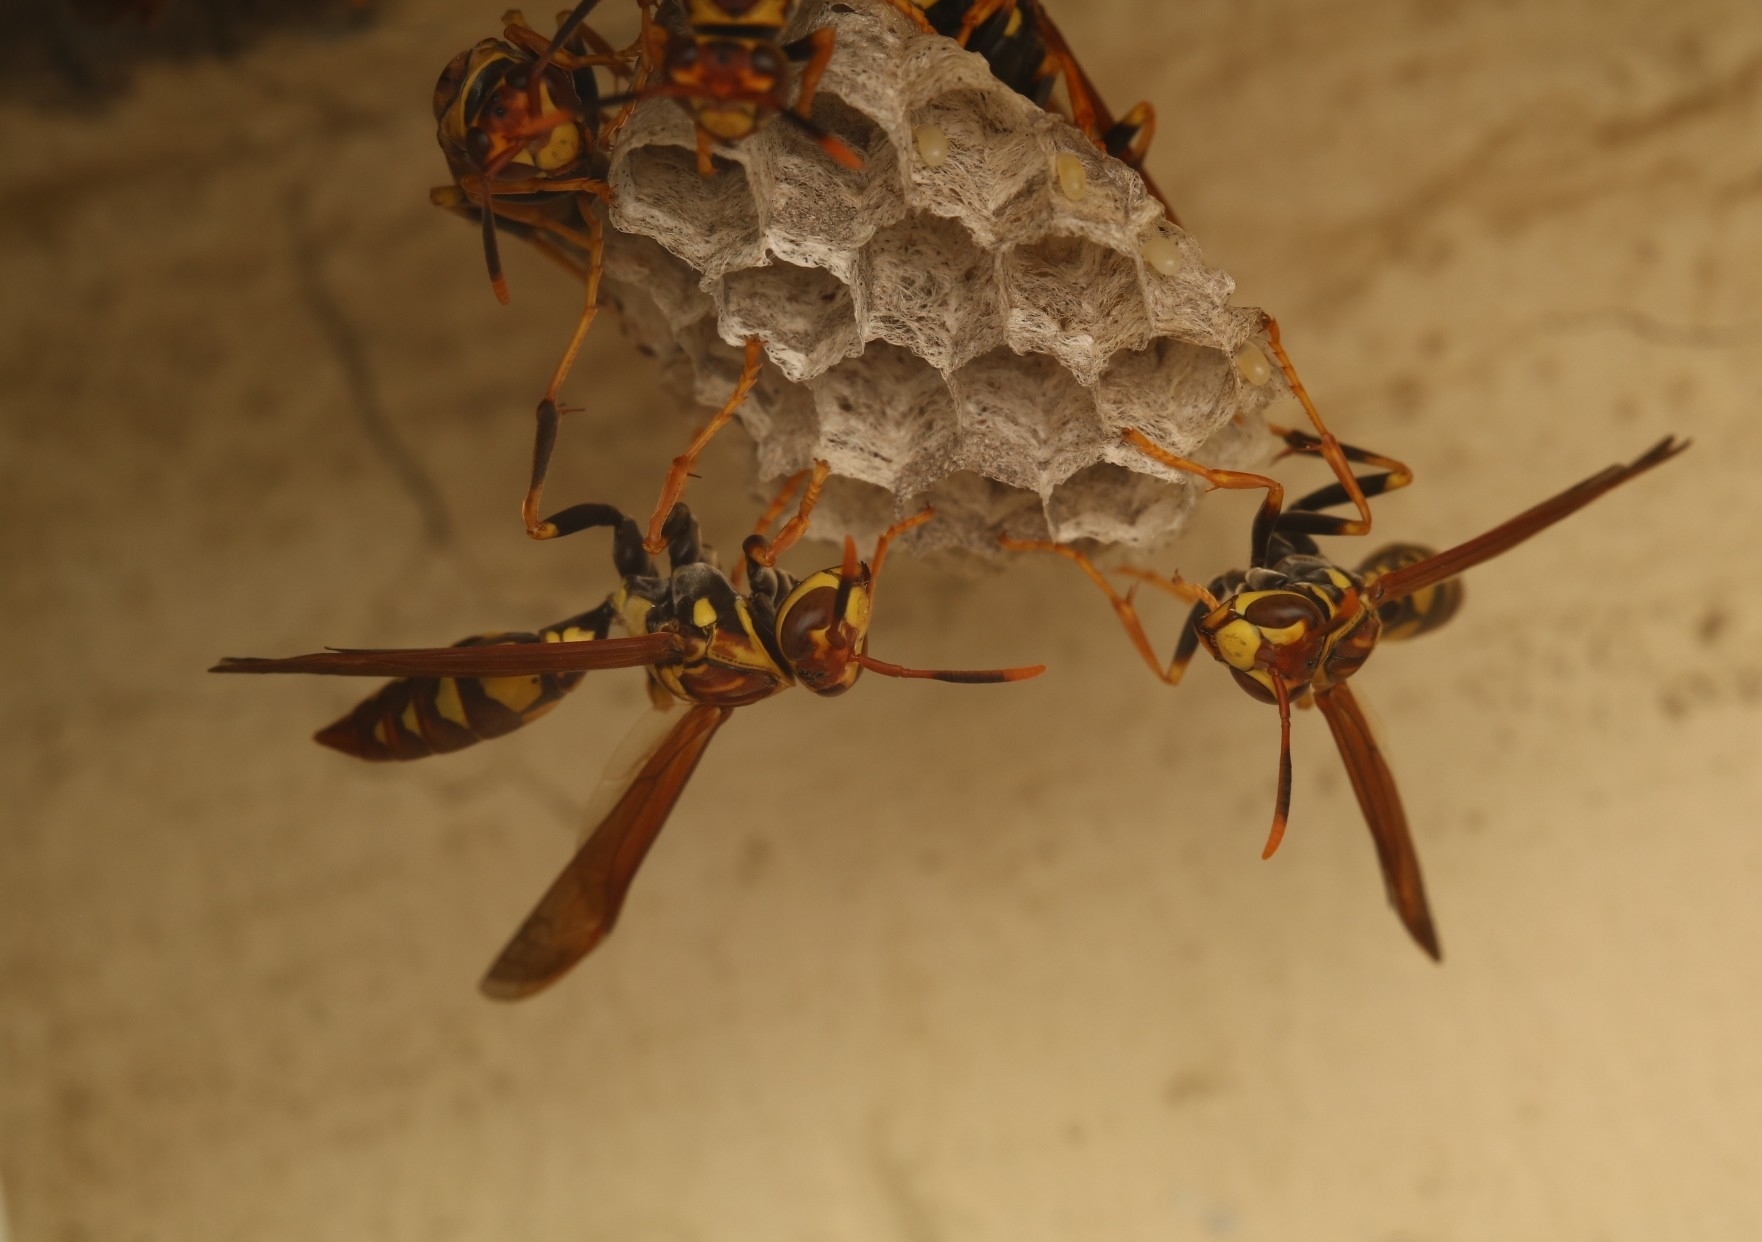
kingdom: Animalia
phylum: Arthropoda
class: Insecta
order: Hymenoptera
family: Eumenidae
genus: Polistes
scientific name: Polistes myersi
